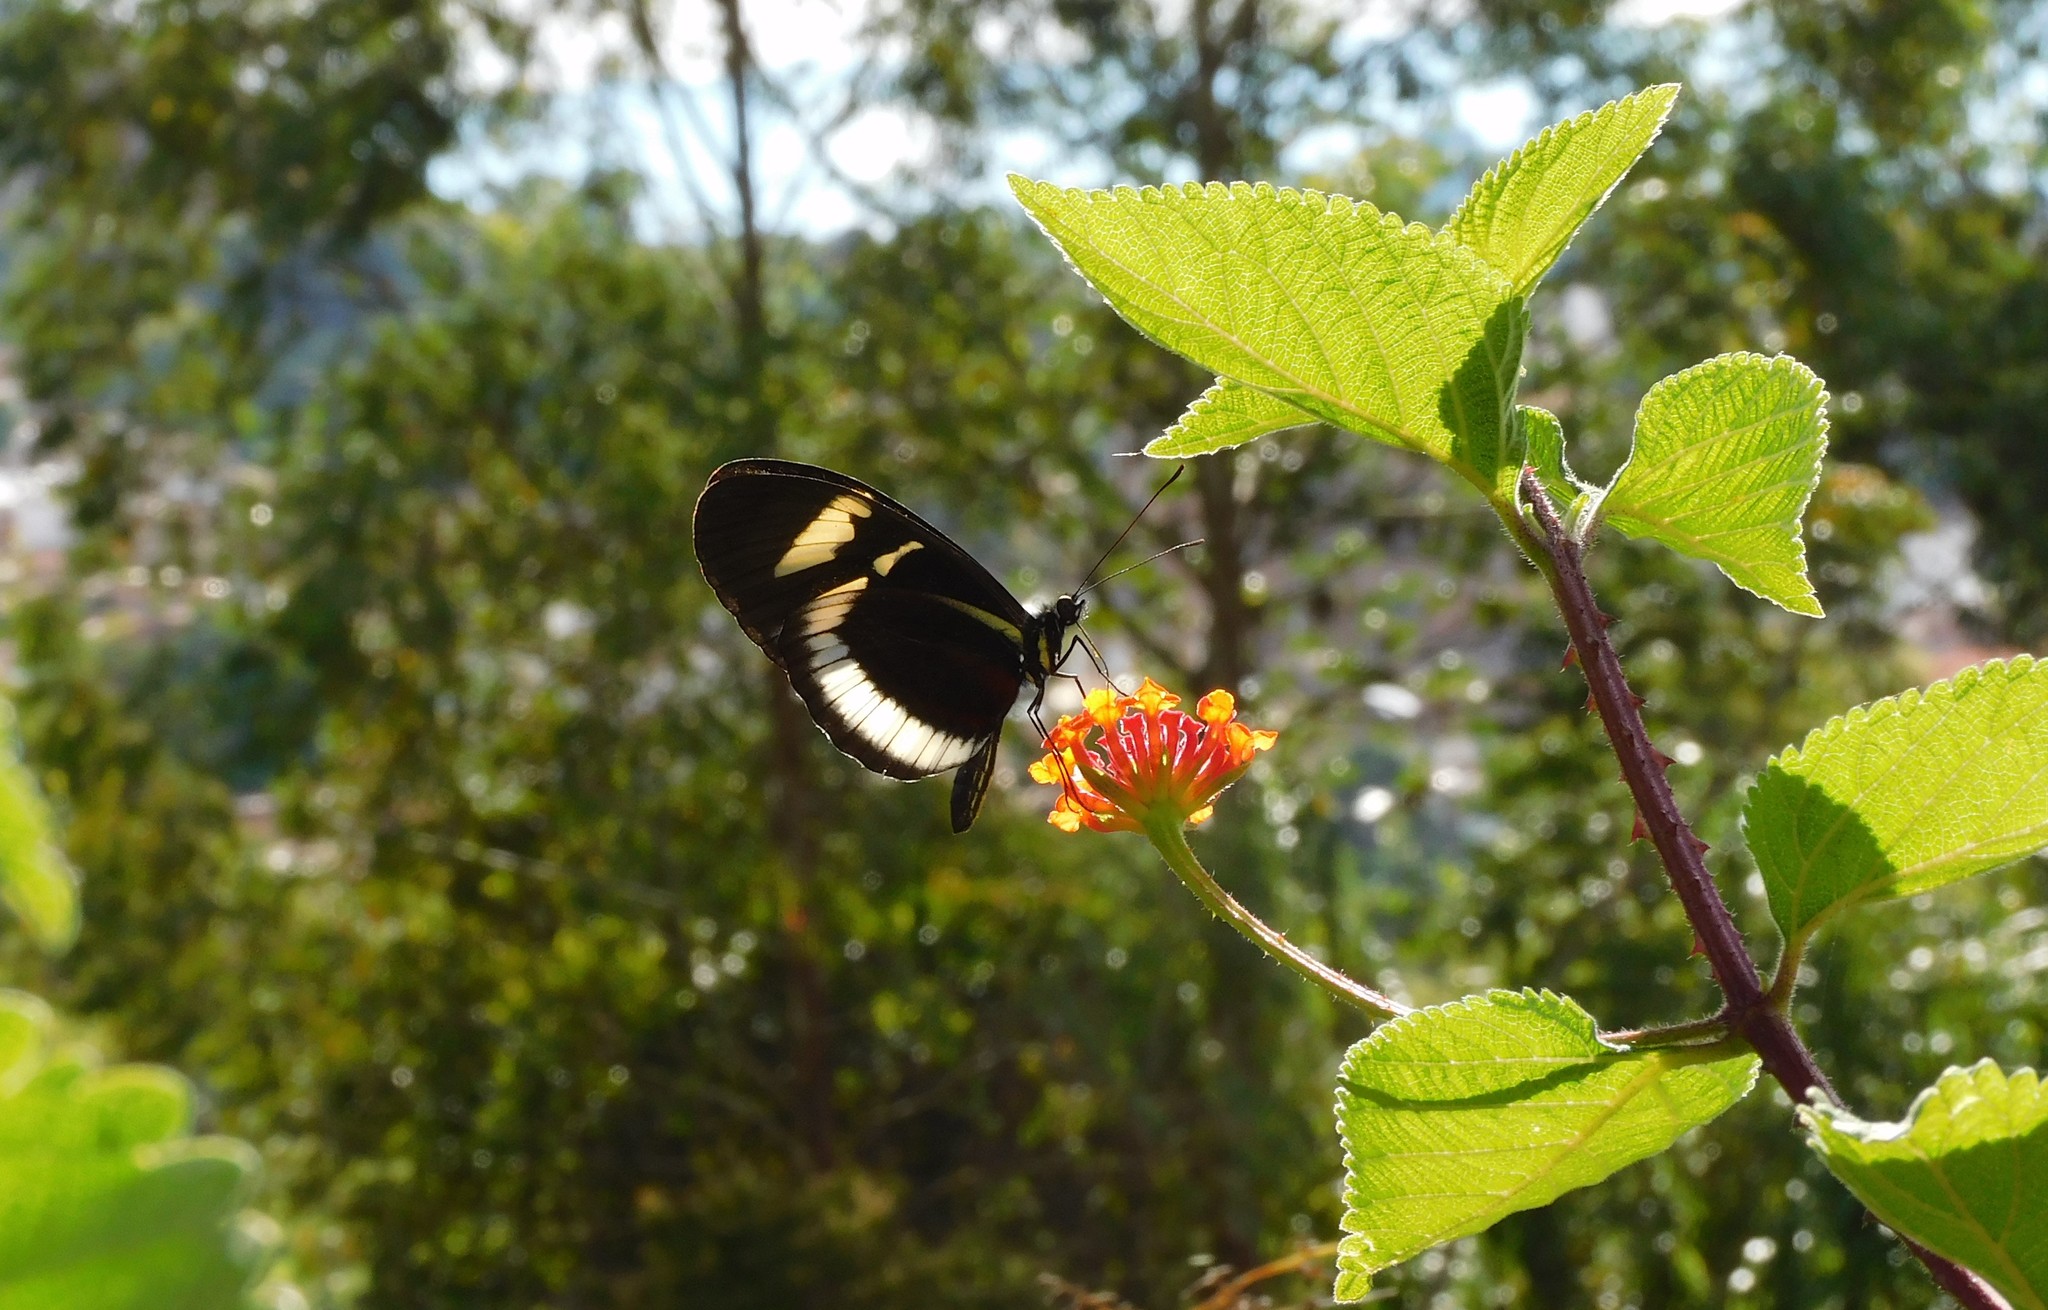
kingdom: Animalia
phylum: Arthropoda
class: Insecta
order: Lepidoptera
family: Nymphalidae
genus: Heliconius
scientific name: Heliconius cydno
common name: Cydno longwing
